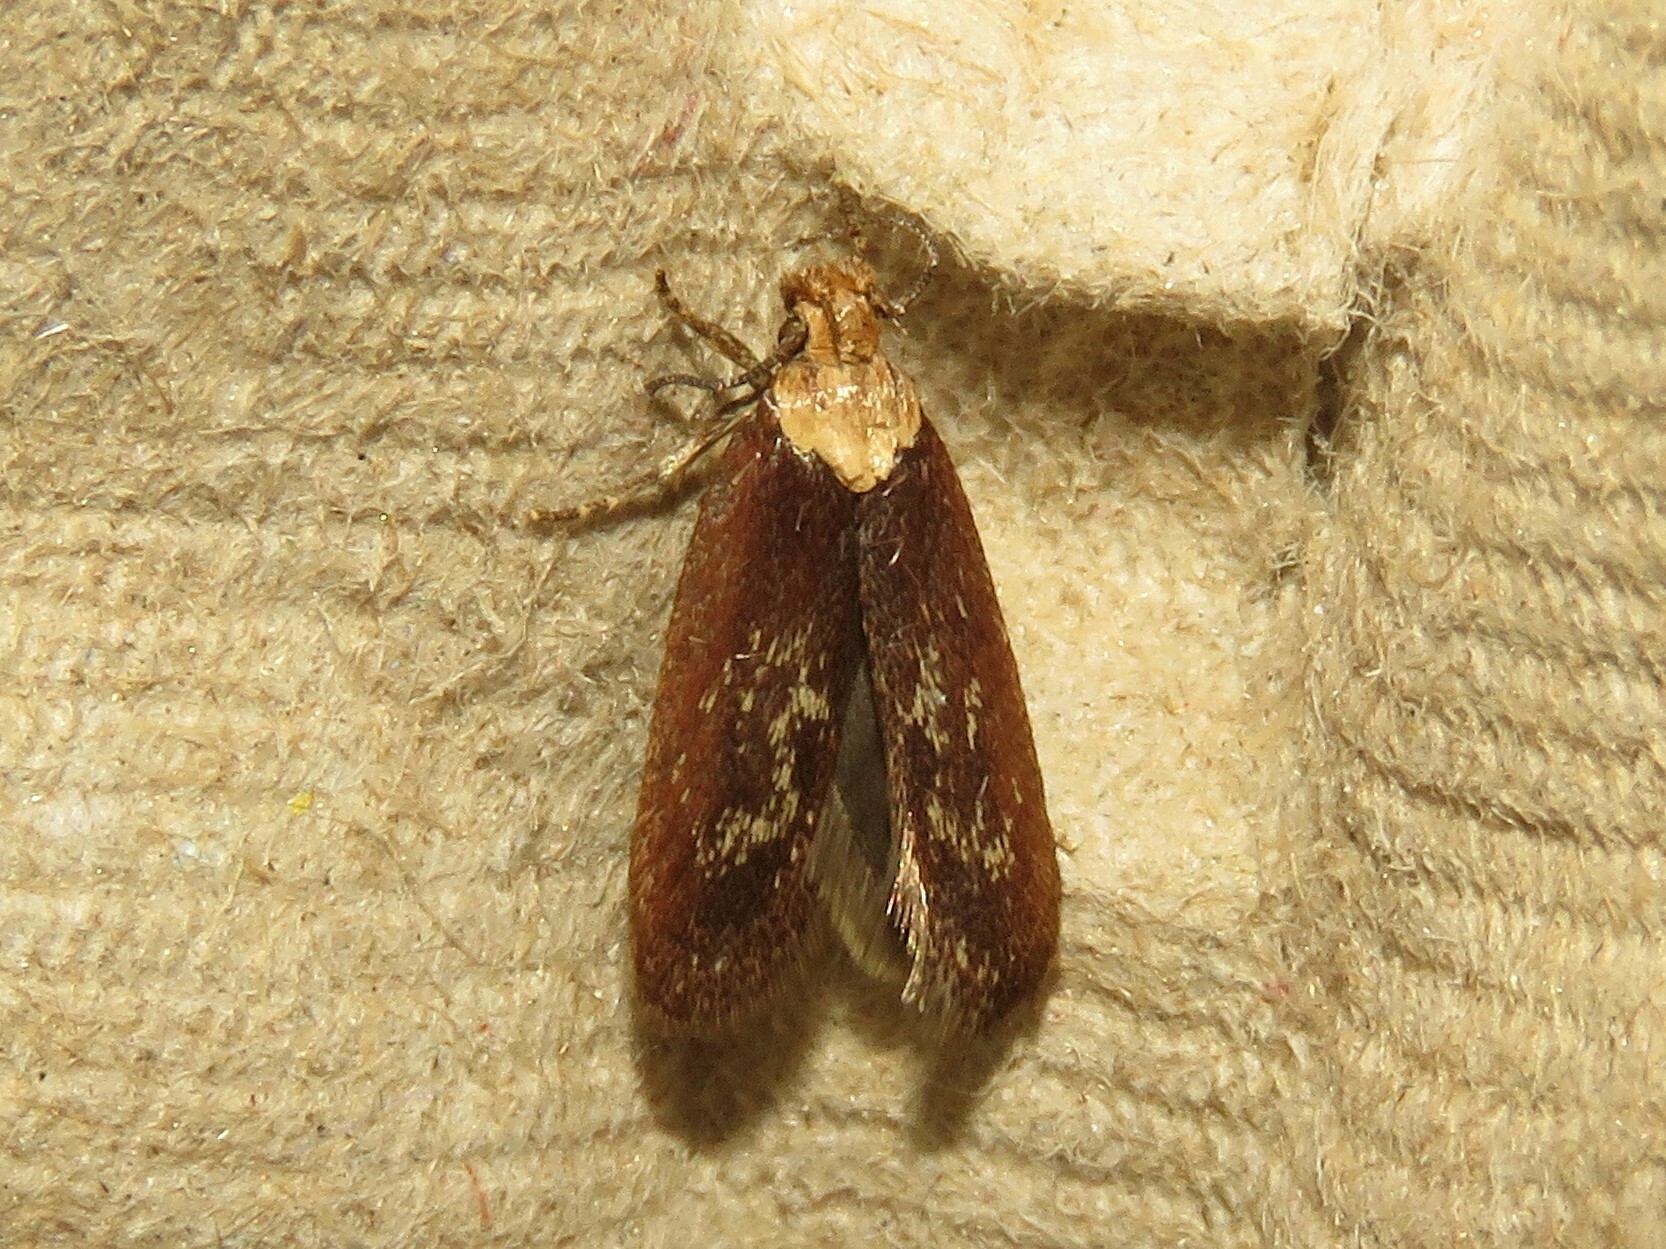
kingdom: Animalia
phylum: Arthropoda
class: Insecta
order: Lepidoptera
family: Depressariidae
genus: Depressaria
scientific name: Depressaria depressana
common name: Lost flat-body
